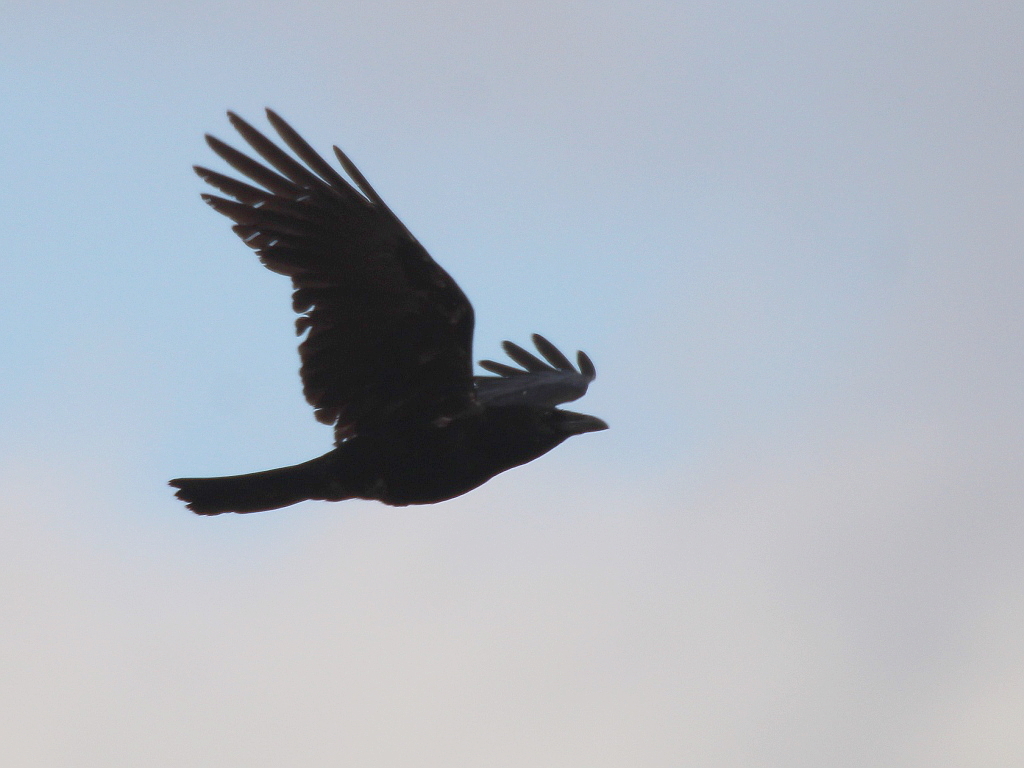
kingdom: Animalia
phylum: Chordata
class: Aves
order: Passeriformes
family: Corvidae
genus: Corvus
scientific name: Corvus corax
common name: Common raven
